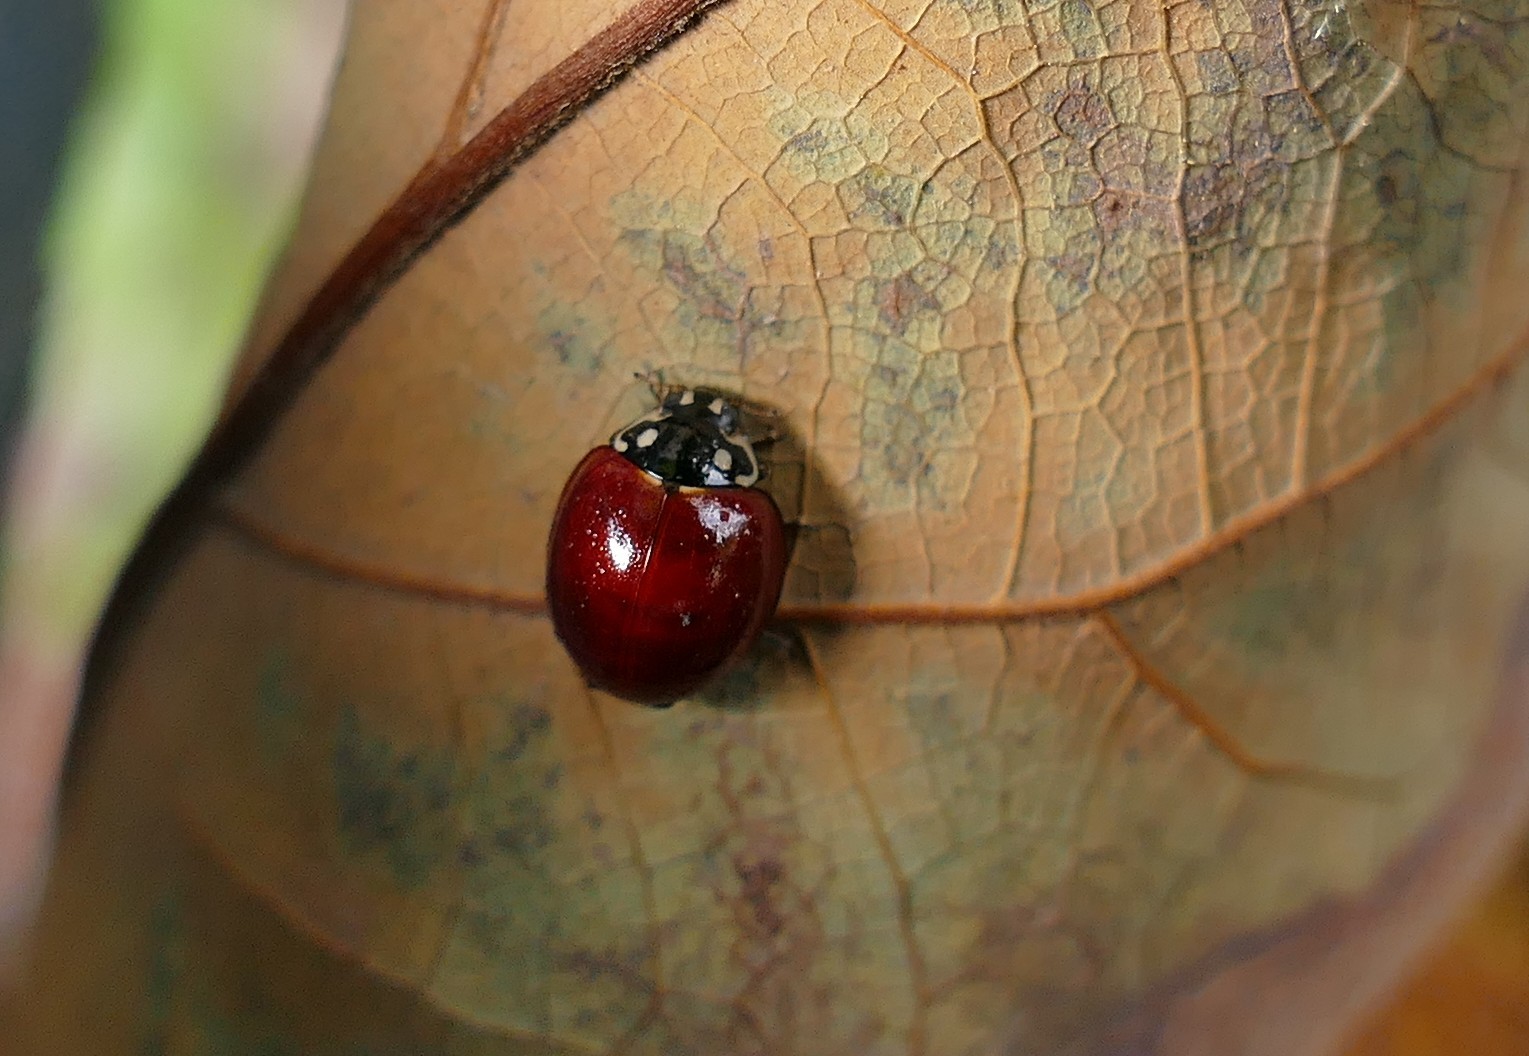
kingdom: Animalia
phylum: Arthropoda
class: Insecta
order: Coleoptera
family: Coccinellidae
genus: Cycloneda
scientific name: Cycloneda sanguinea
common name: Ladybird beetle
